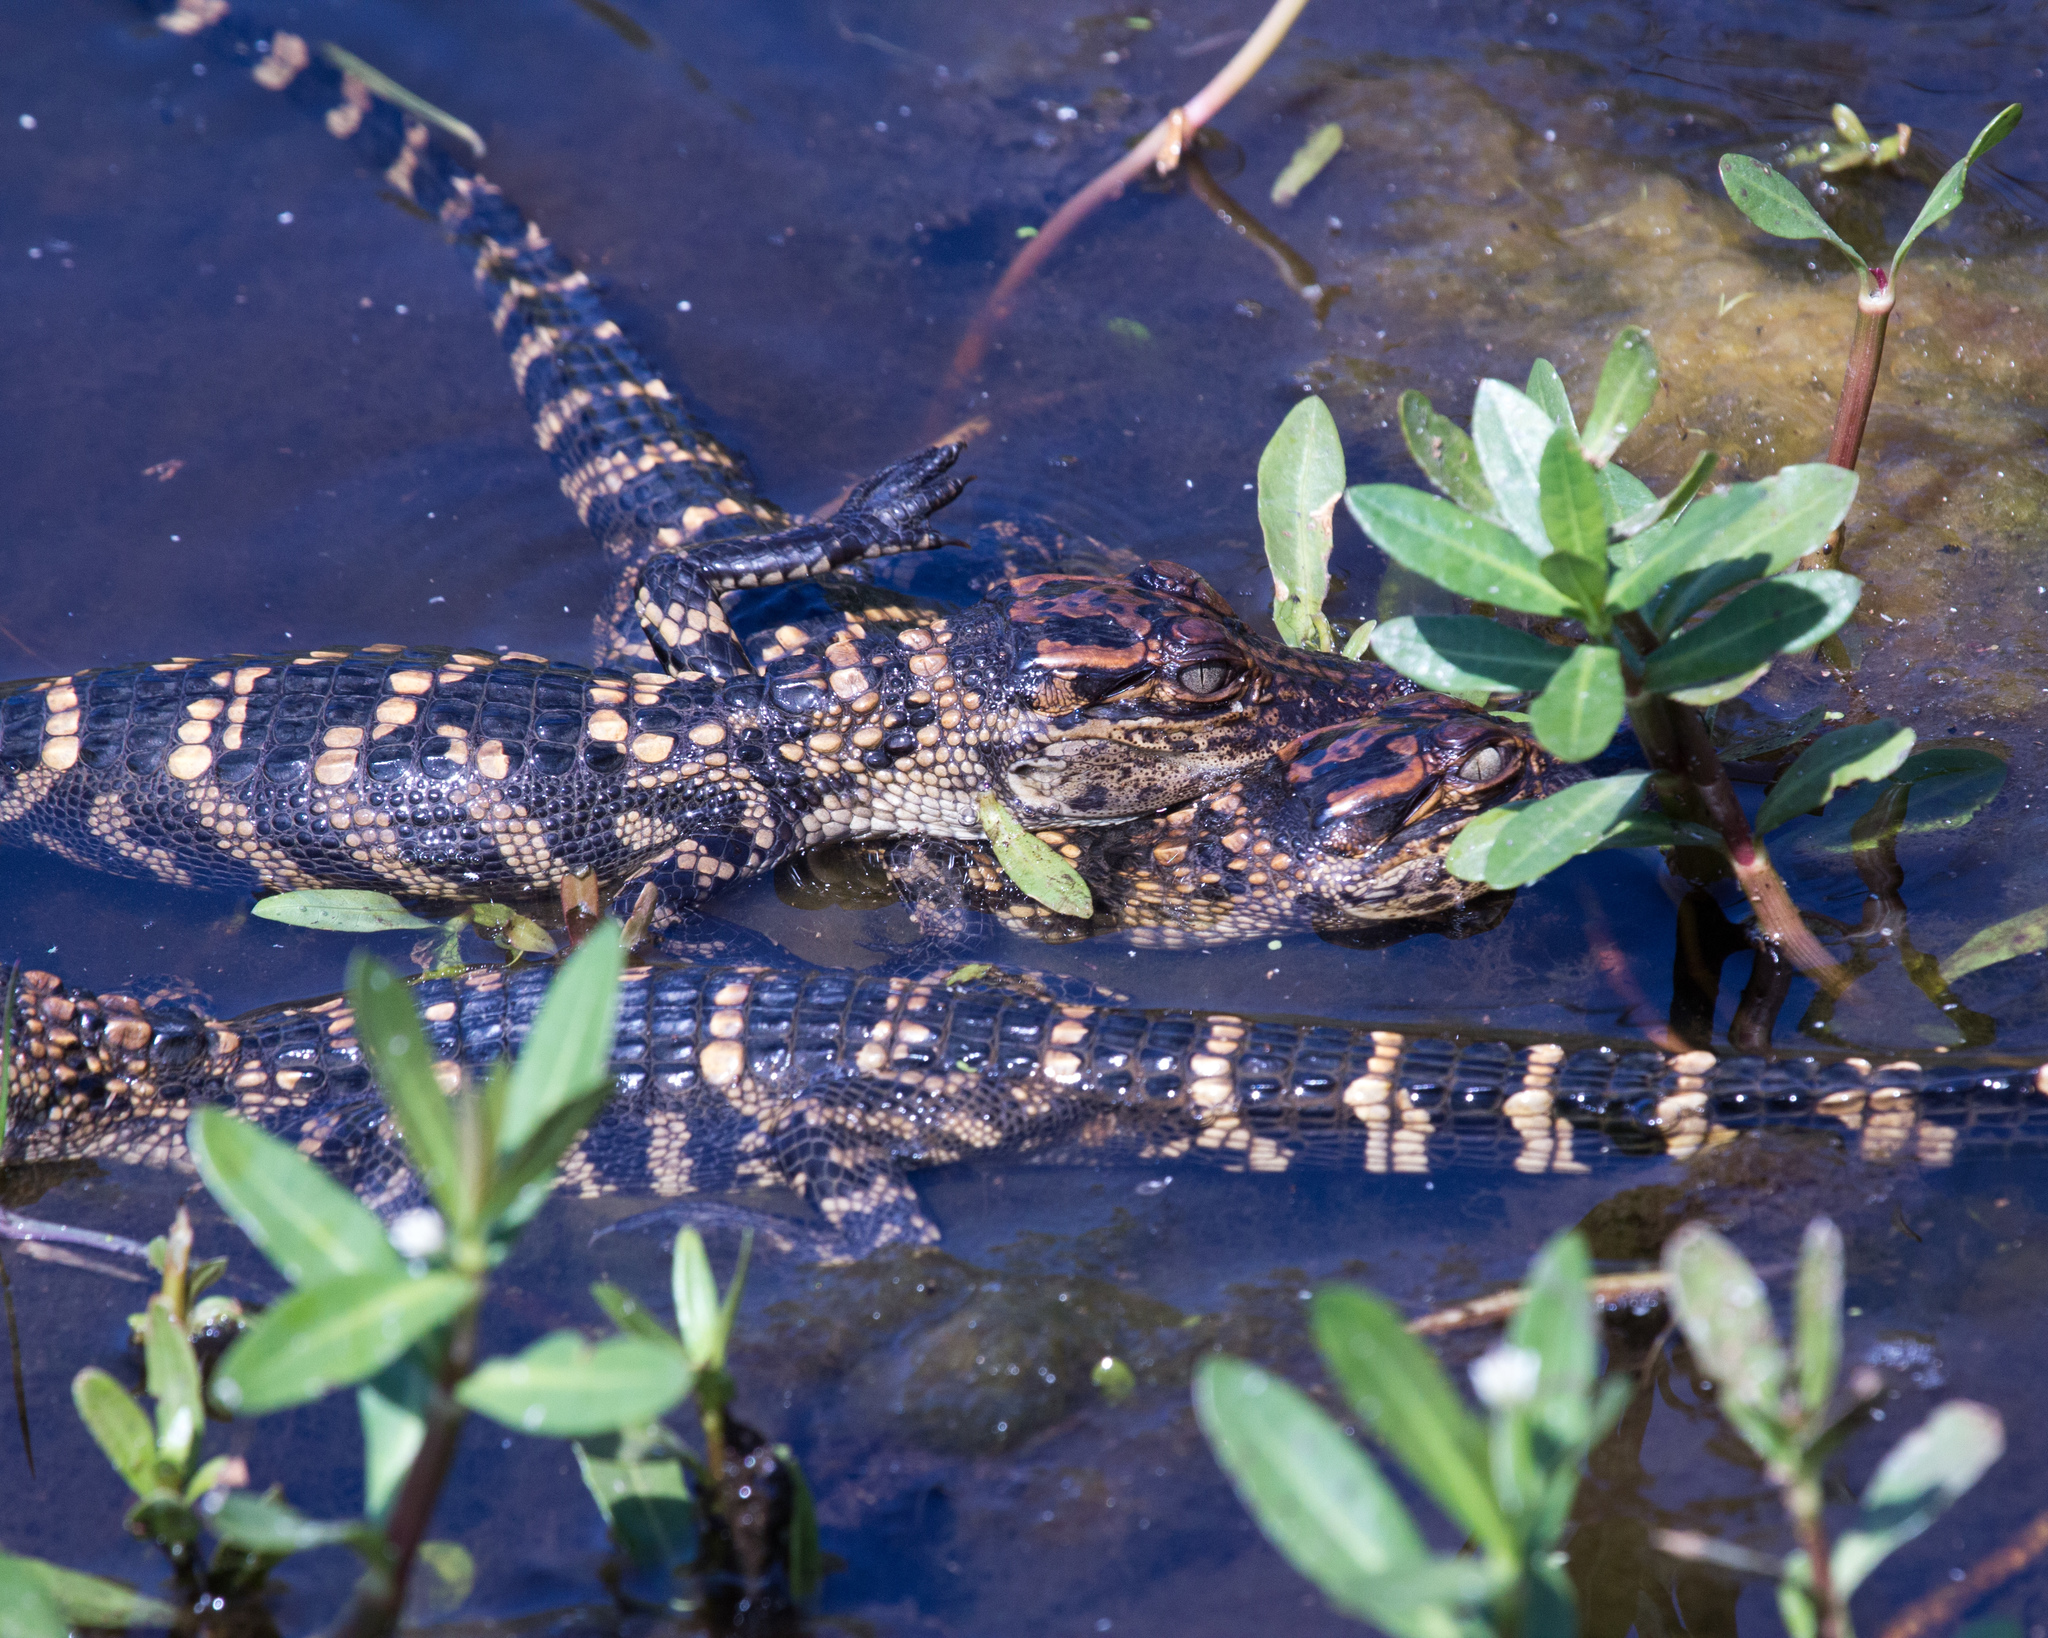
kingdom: Animalia
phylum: Chordata
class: Crocodylia
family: Alligatoridae
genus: Alligator
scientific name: Alligator mississippiensis
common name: American alligator
